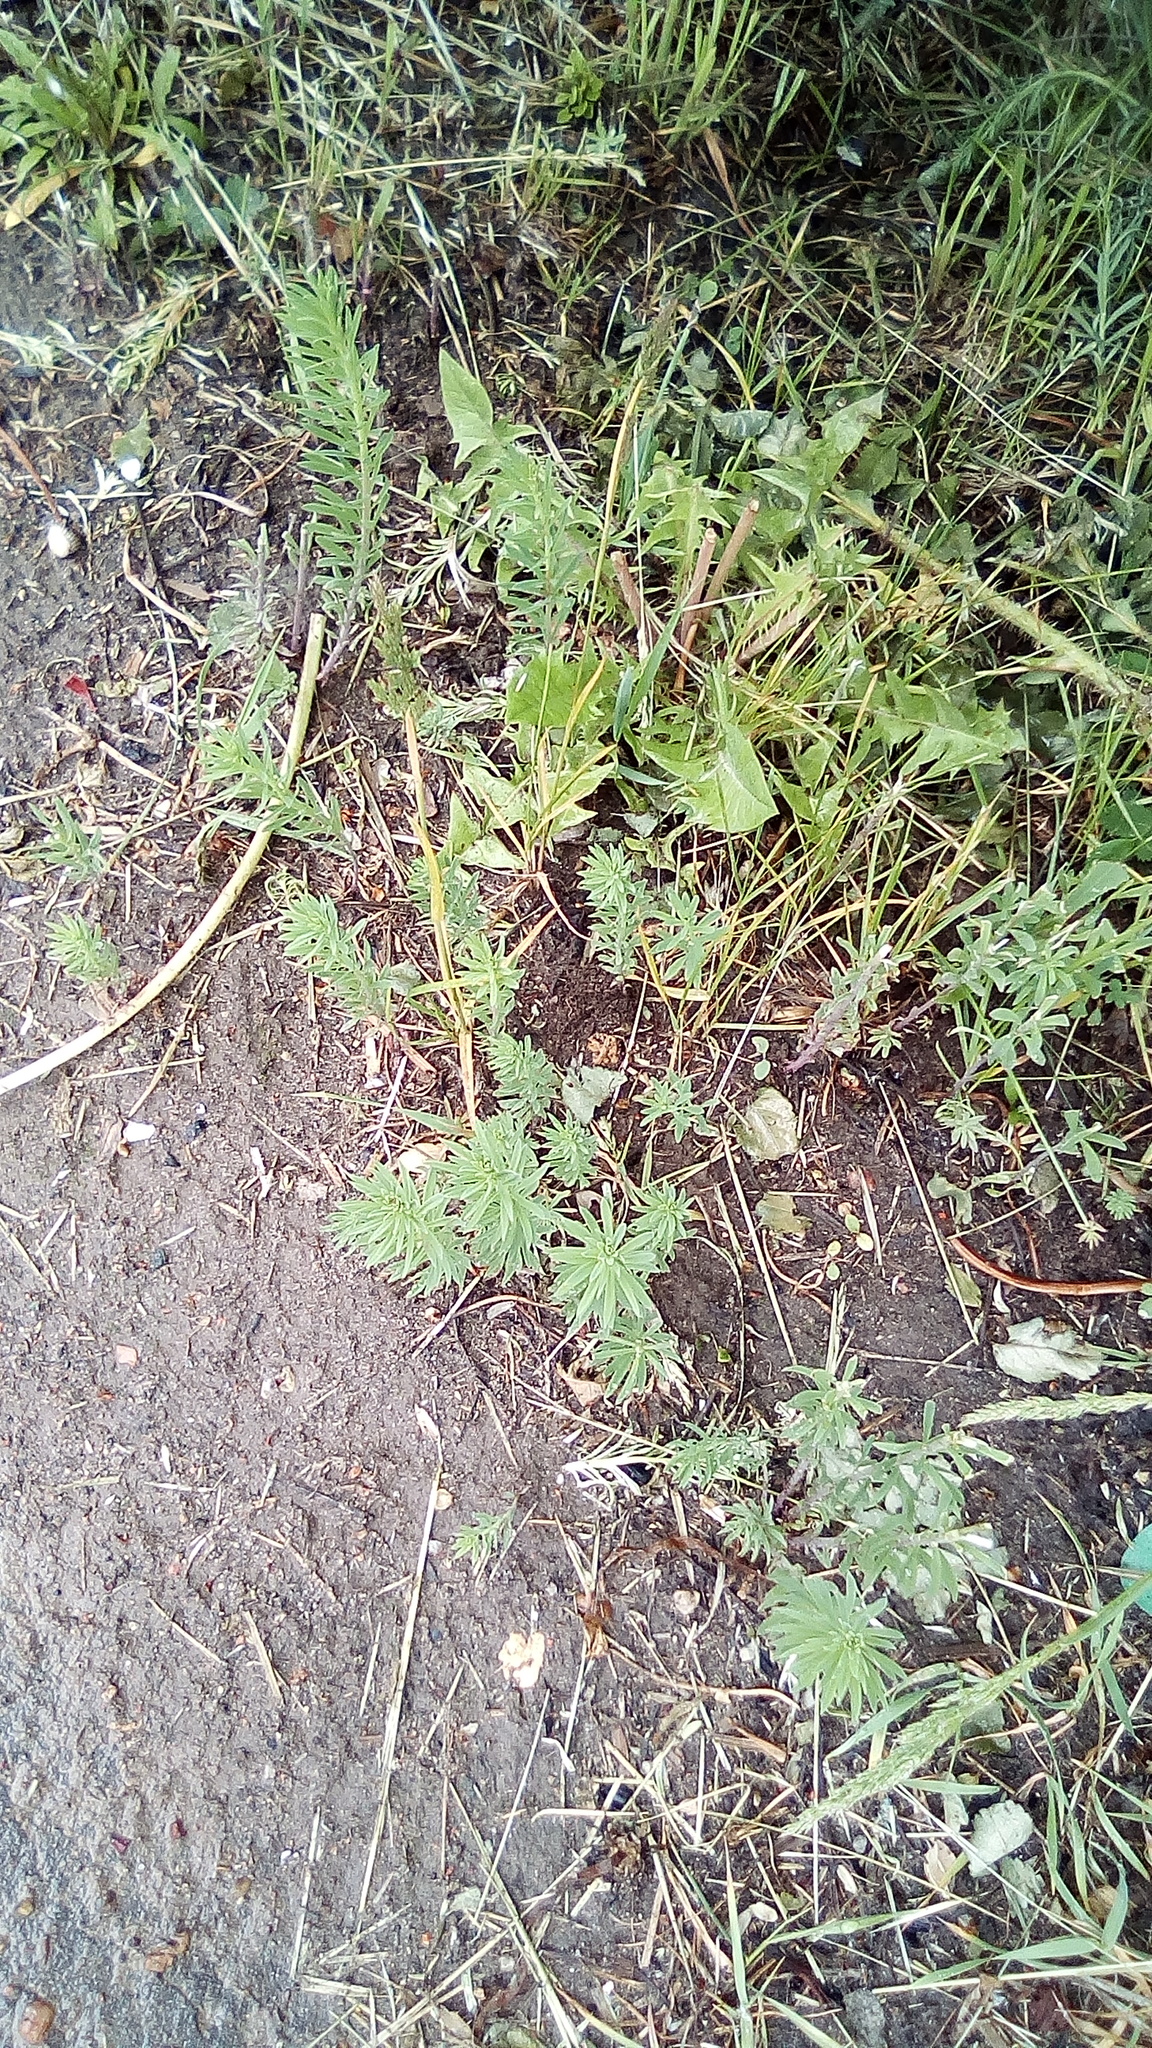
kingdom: Plantae
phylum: Tracheophyta
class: Magnoliopsida
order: Lamiales
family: Plantaginaceae
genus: Linaria
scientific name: Linaria vulgaris
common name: Butter and eggs
